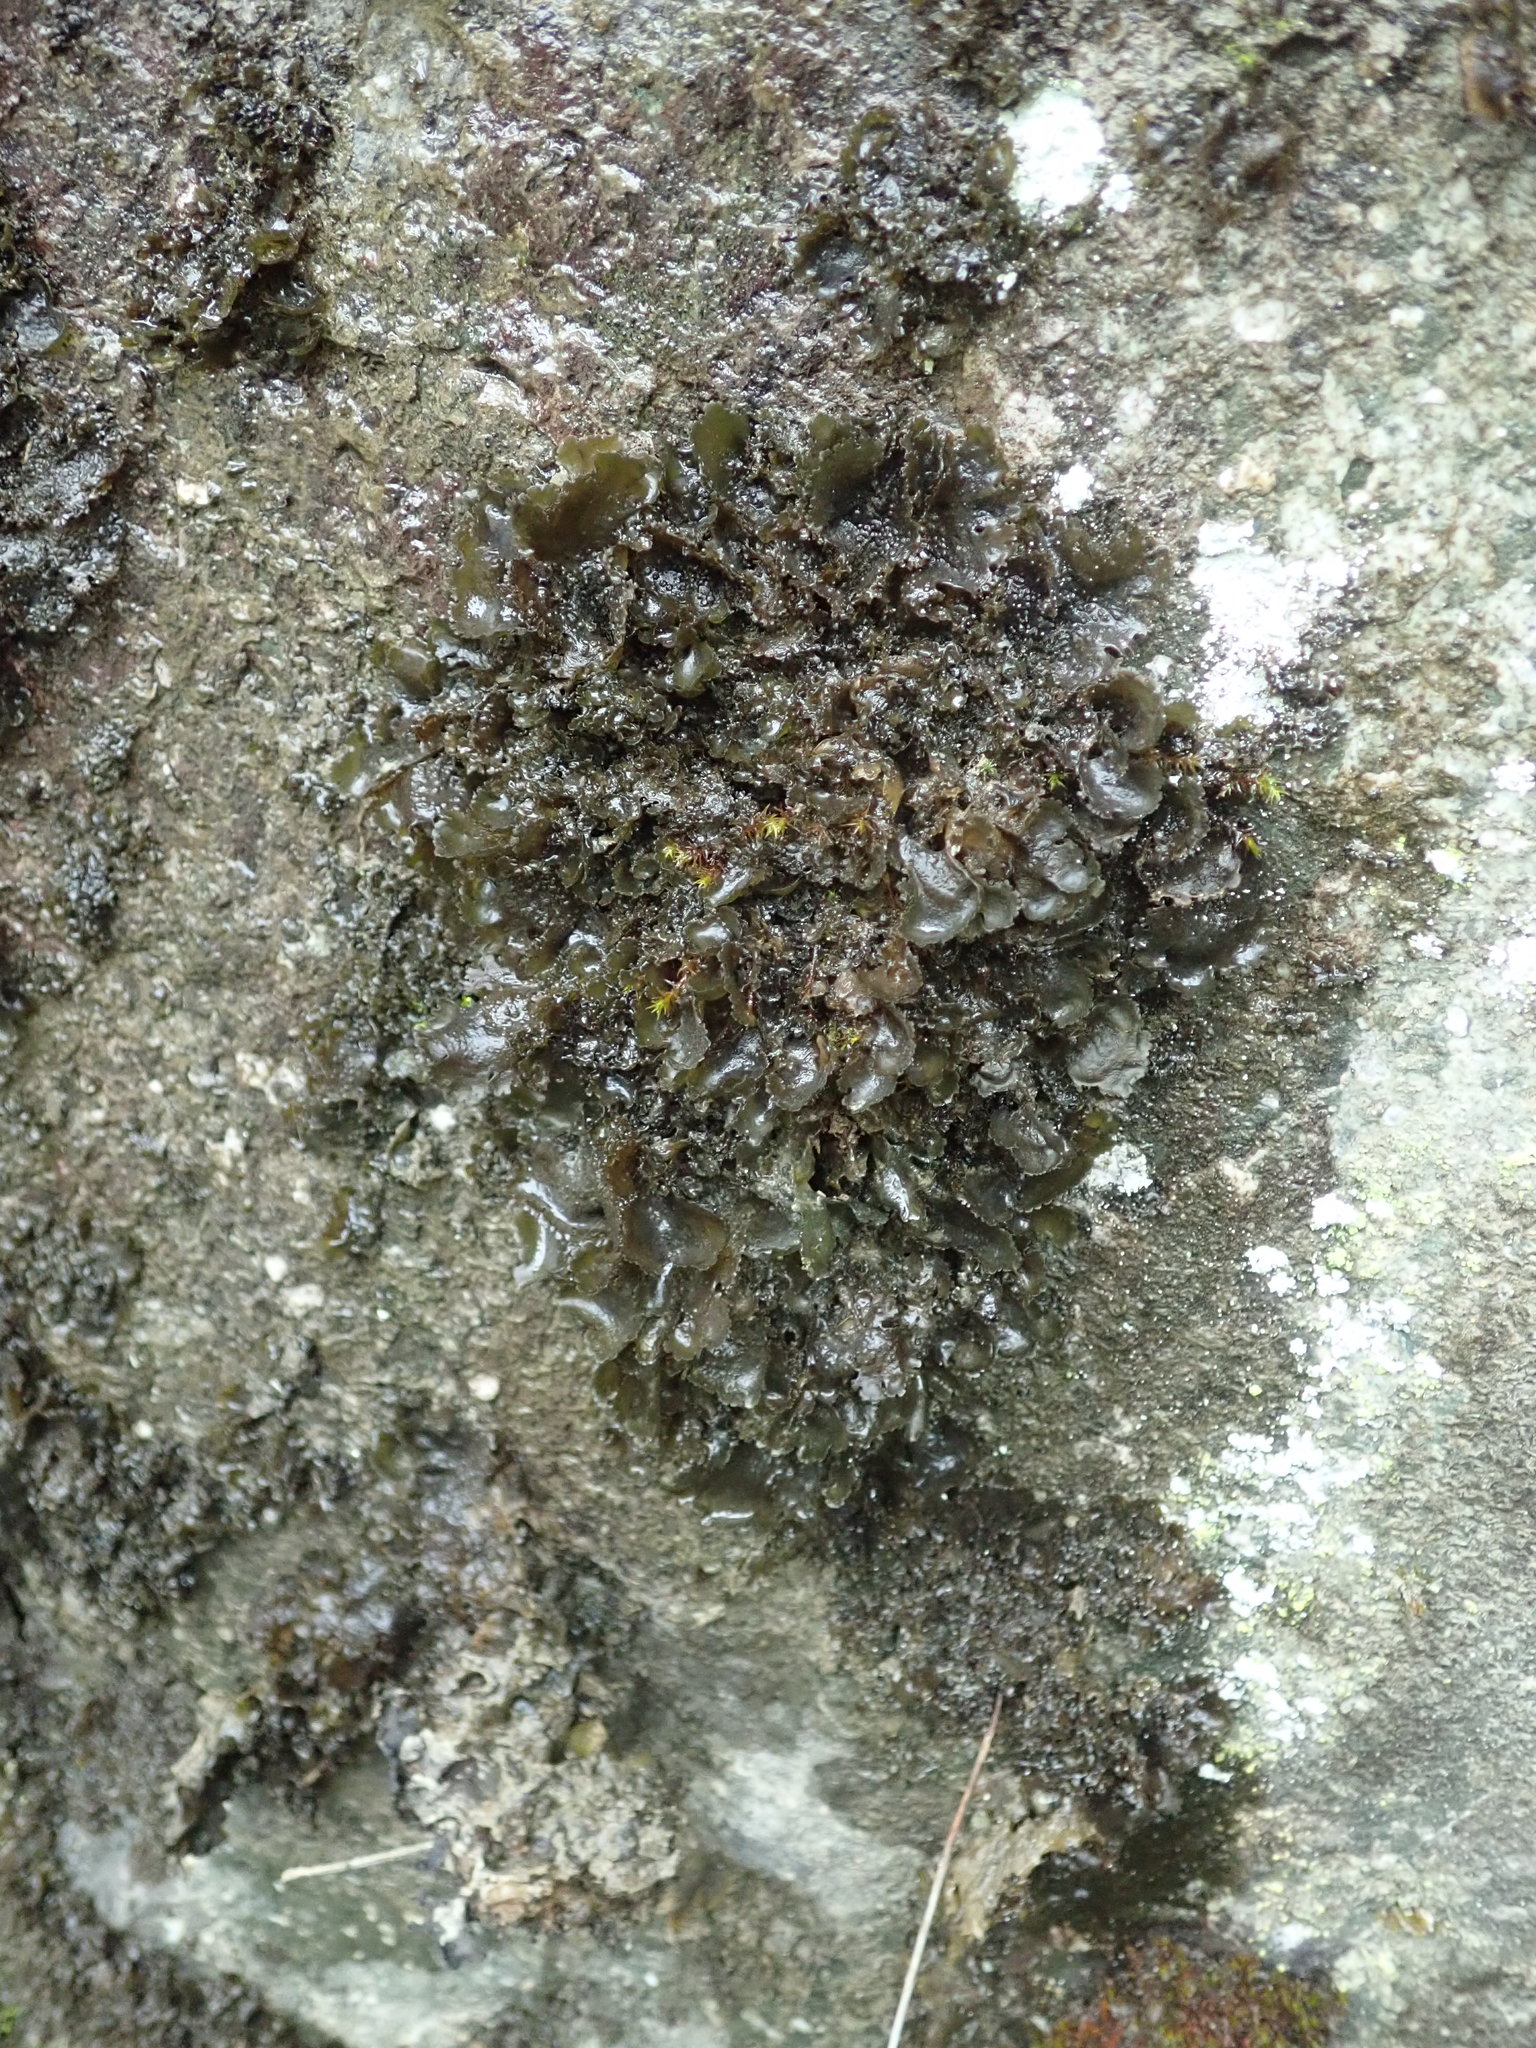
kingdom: Fungi
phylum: Ascomycota
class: Lecanoromycetes
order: Peltigerales
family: Collemataceae
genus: Scytinium
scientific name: Scytinium platynum
